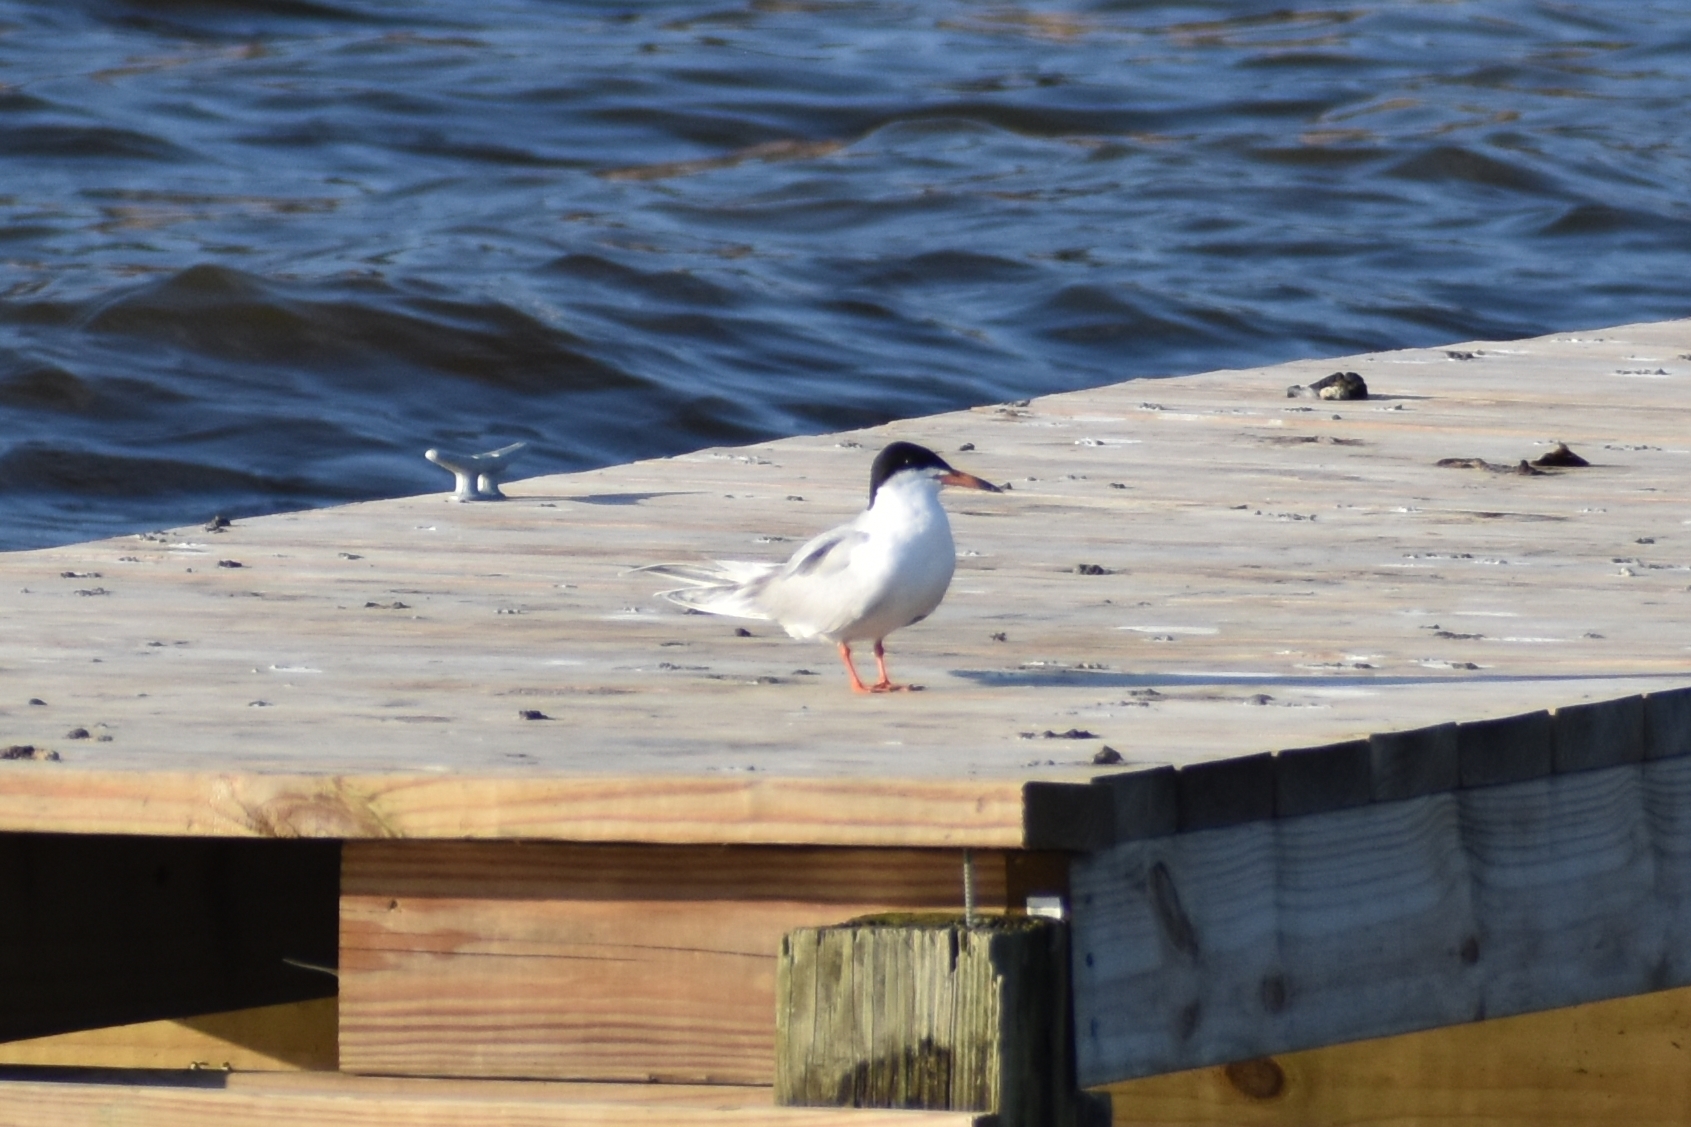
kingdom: Animalia
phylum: Chordata
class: Aves
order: Charadriiformes
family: Laridae
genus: Sterna
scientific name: Sterna forsteri
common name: Forster's tern
